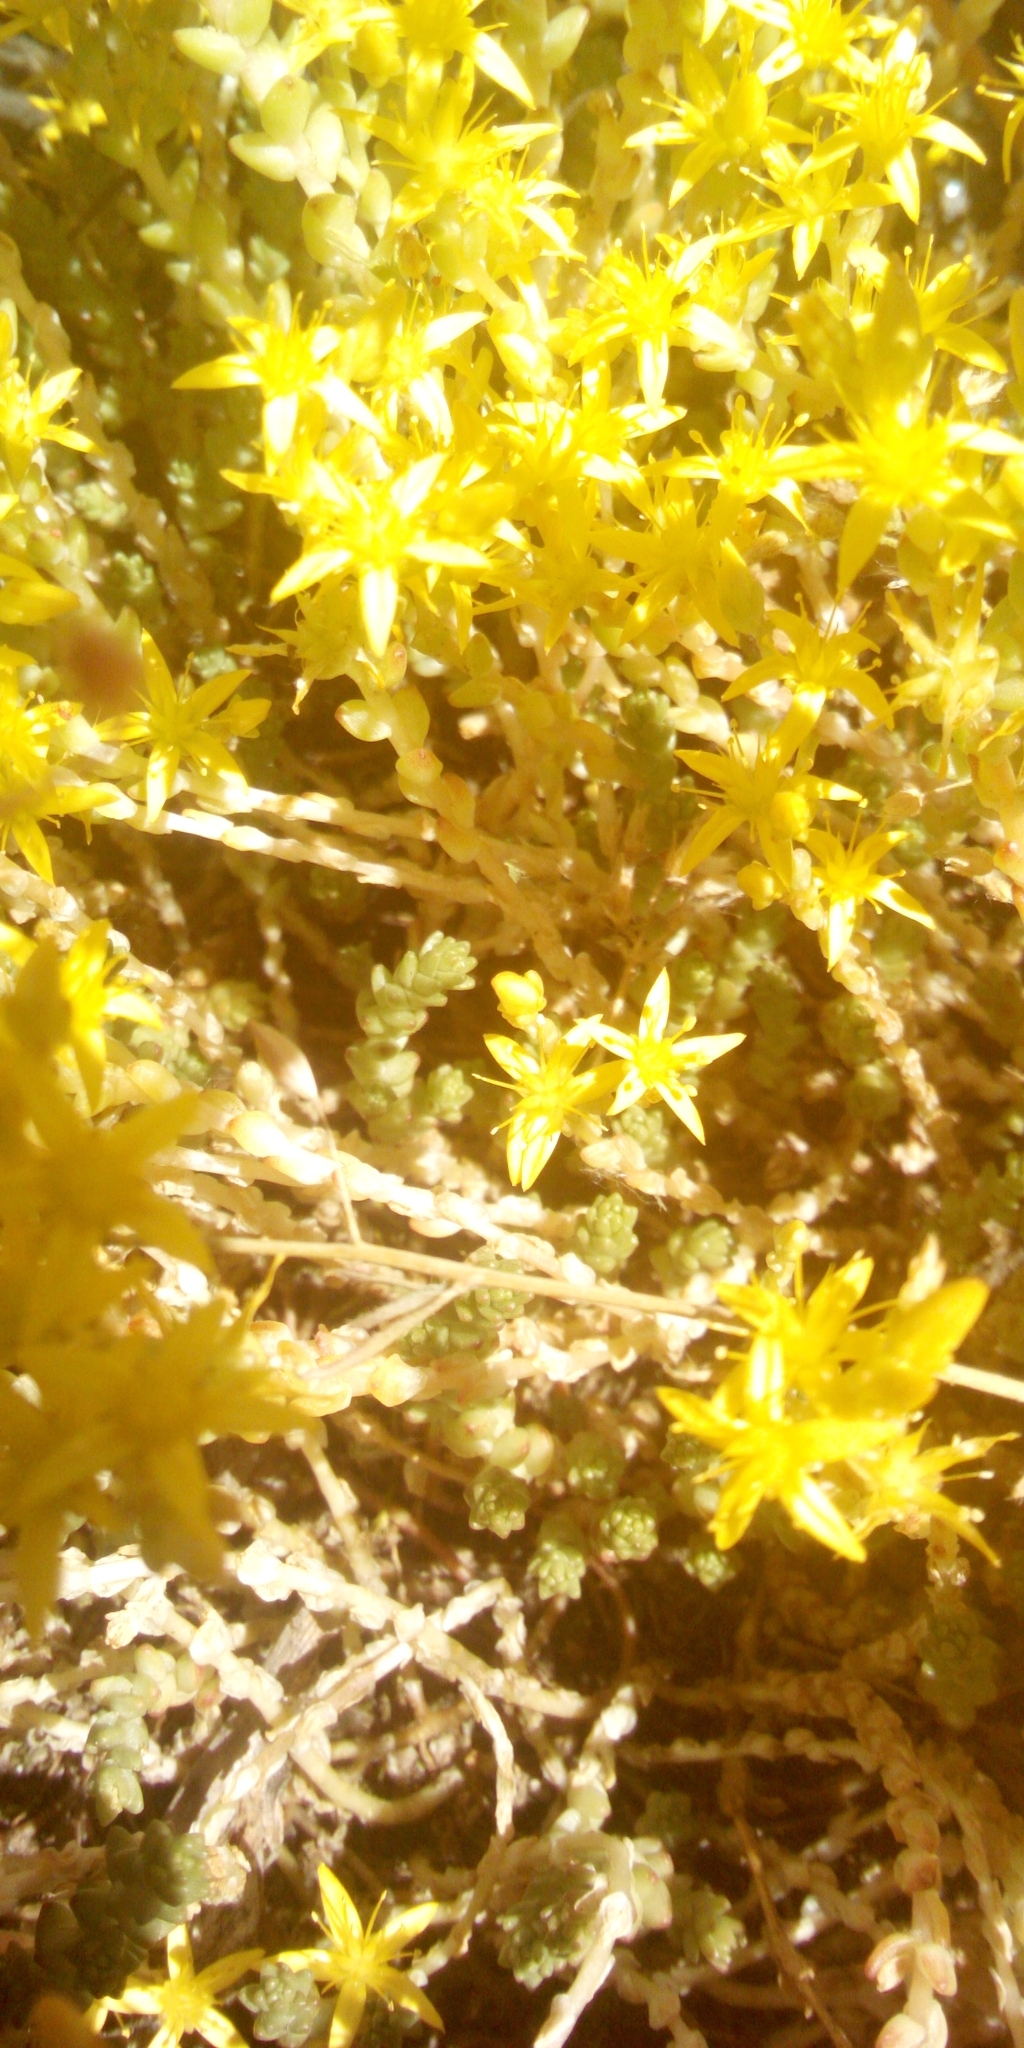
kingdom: Plantae
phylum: Tracheophyta
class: Magnoliopsida
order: Saxifragales
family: Crassulaceae
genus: Sedum
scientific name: Sedum acre
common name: Biting stonecrop
